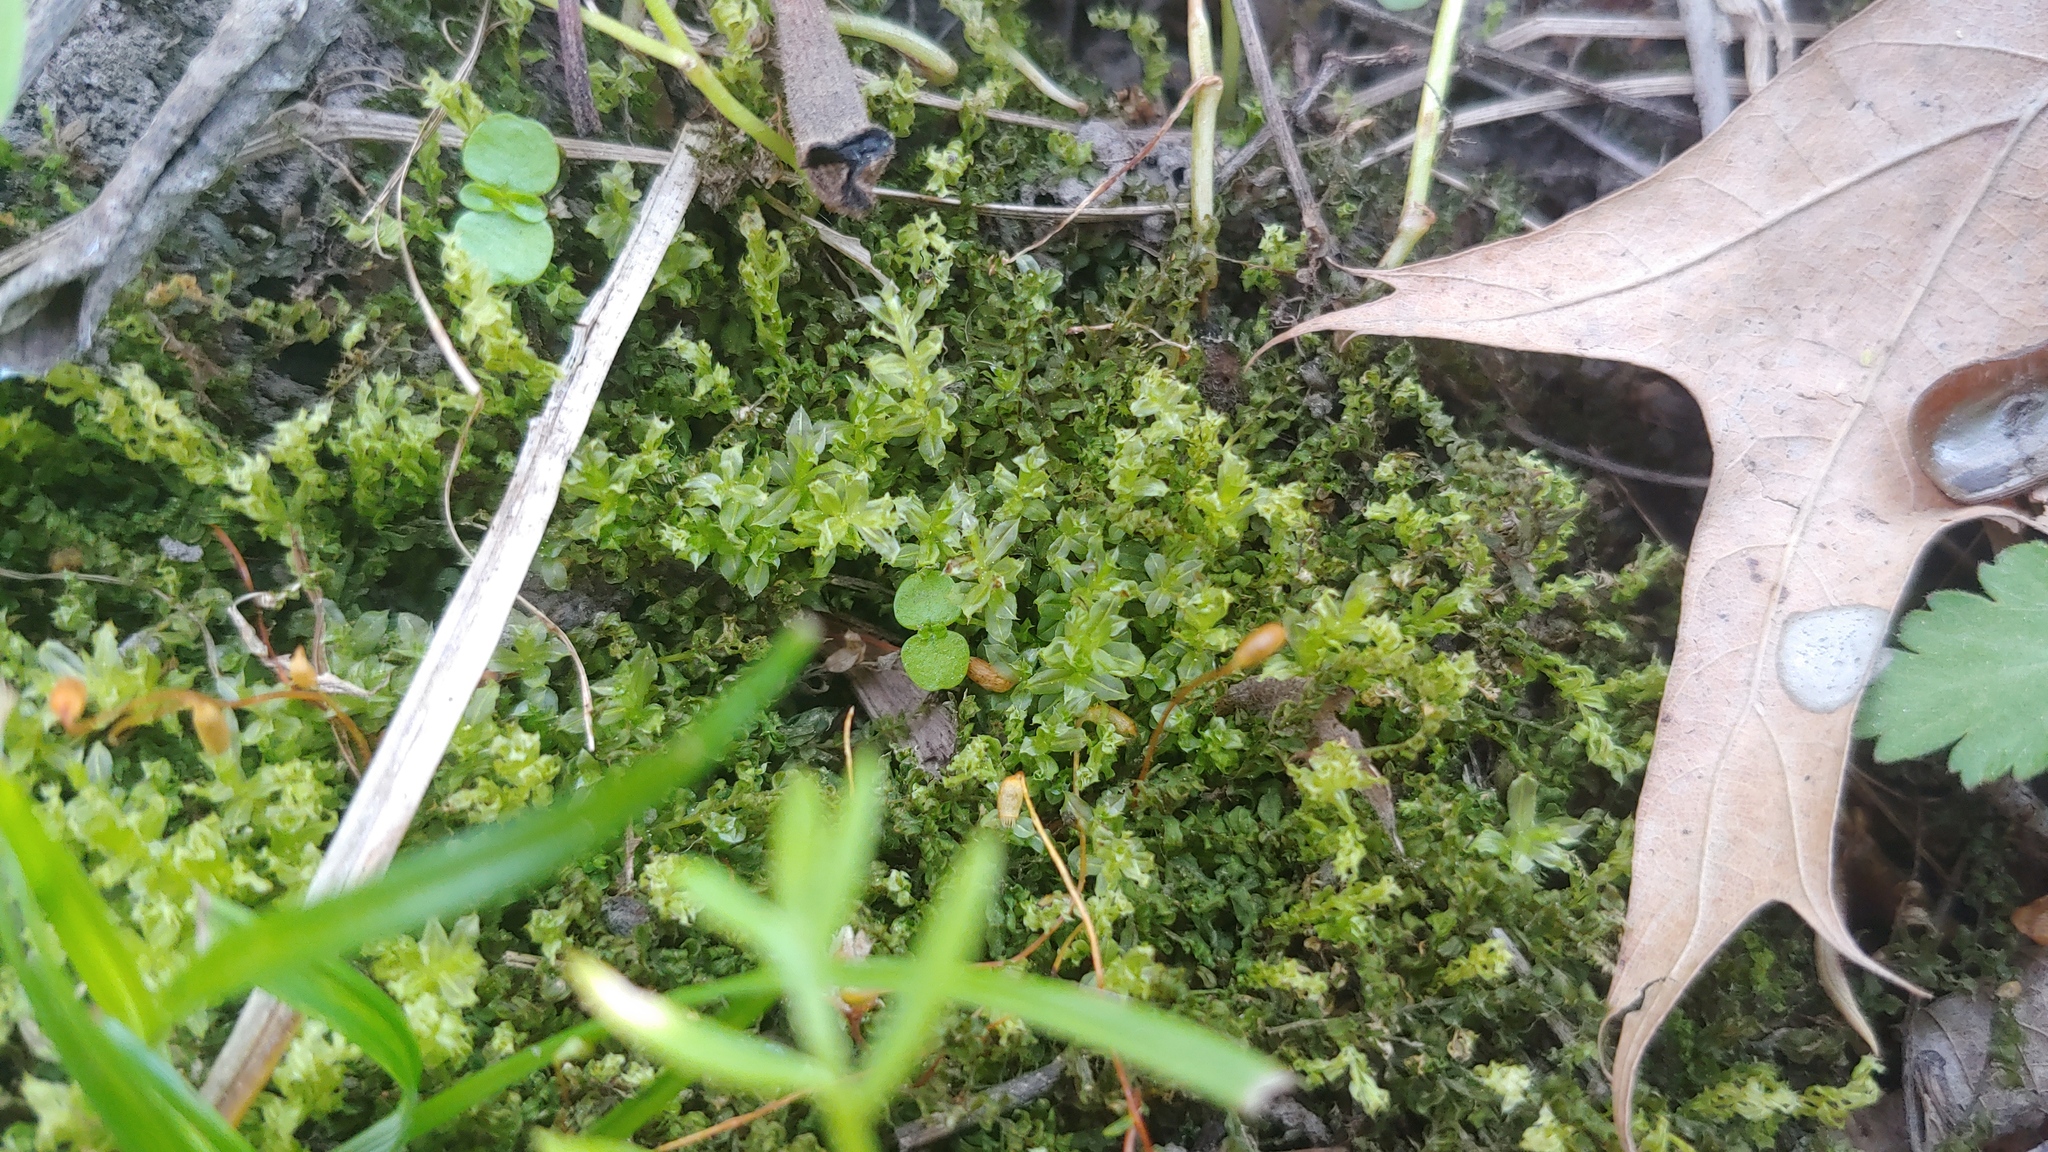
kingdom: Plantae
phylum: Bryophyta
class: Bryopsida
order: Bryales
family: Mniaceae
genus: Plagiomnium
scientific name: Plagiomnium cuspidatum
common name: Woodsy leafy moss
